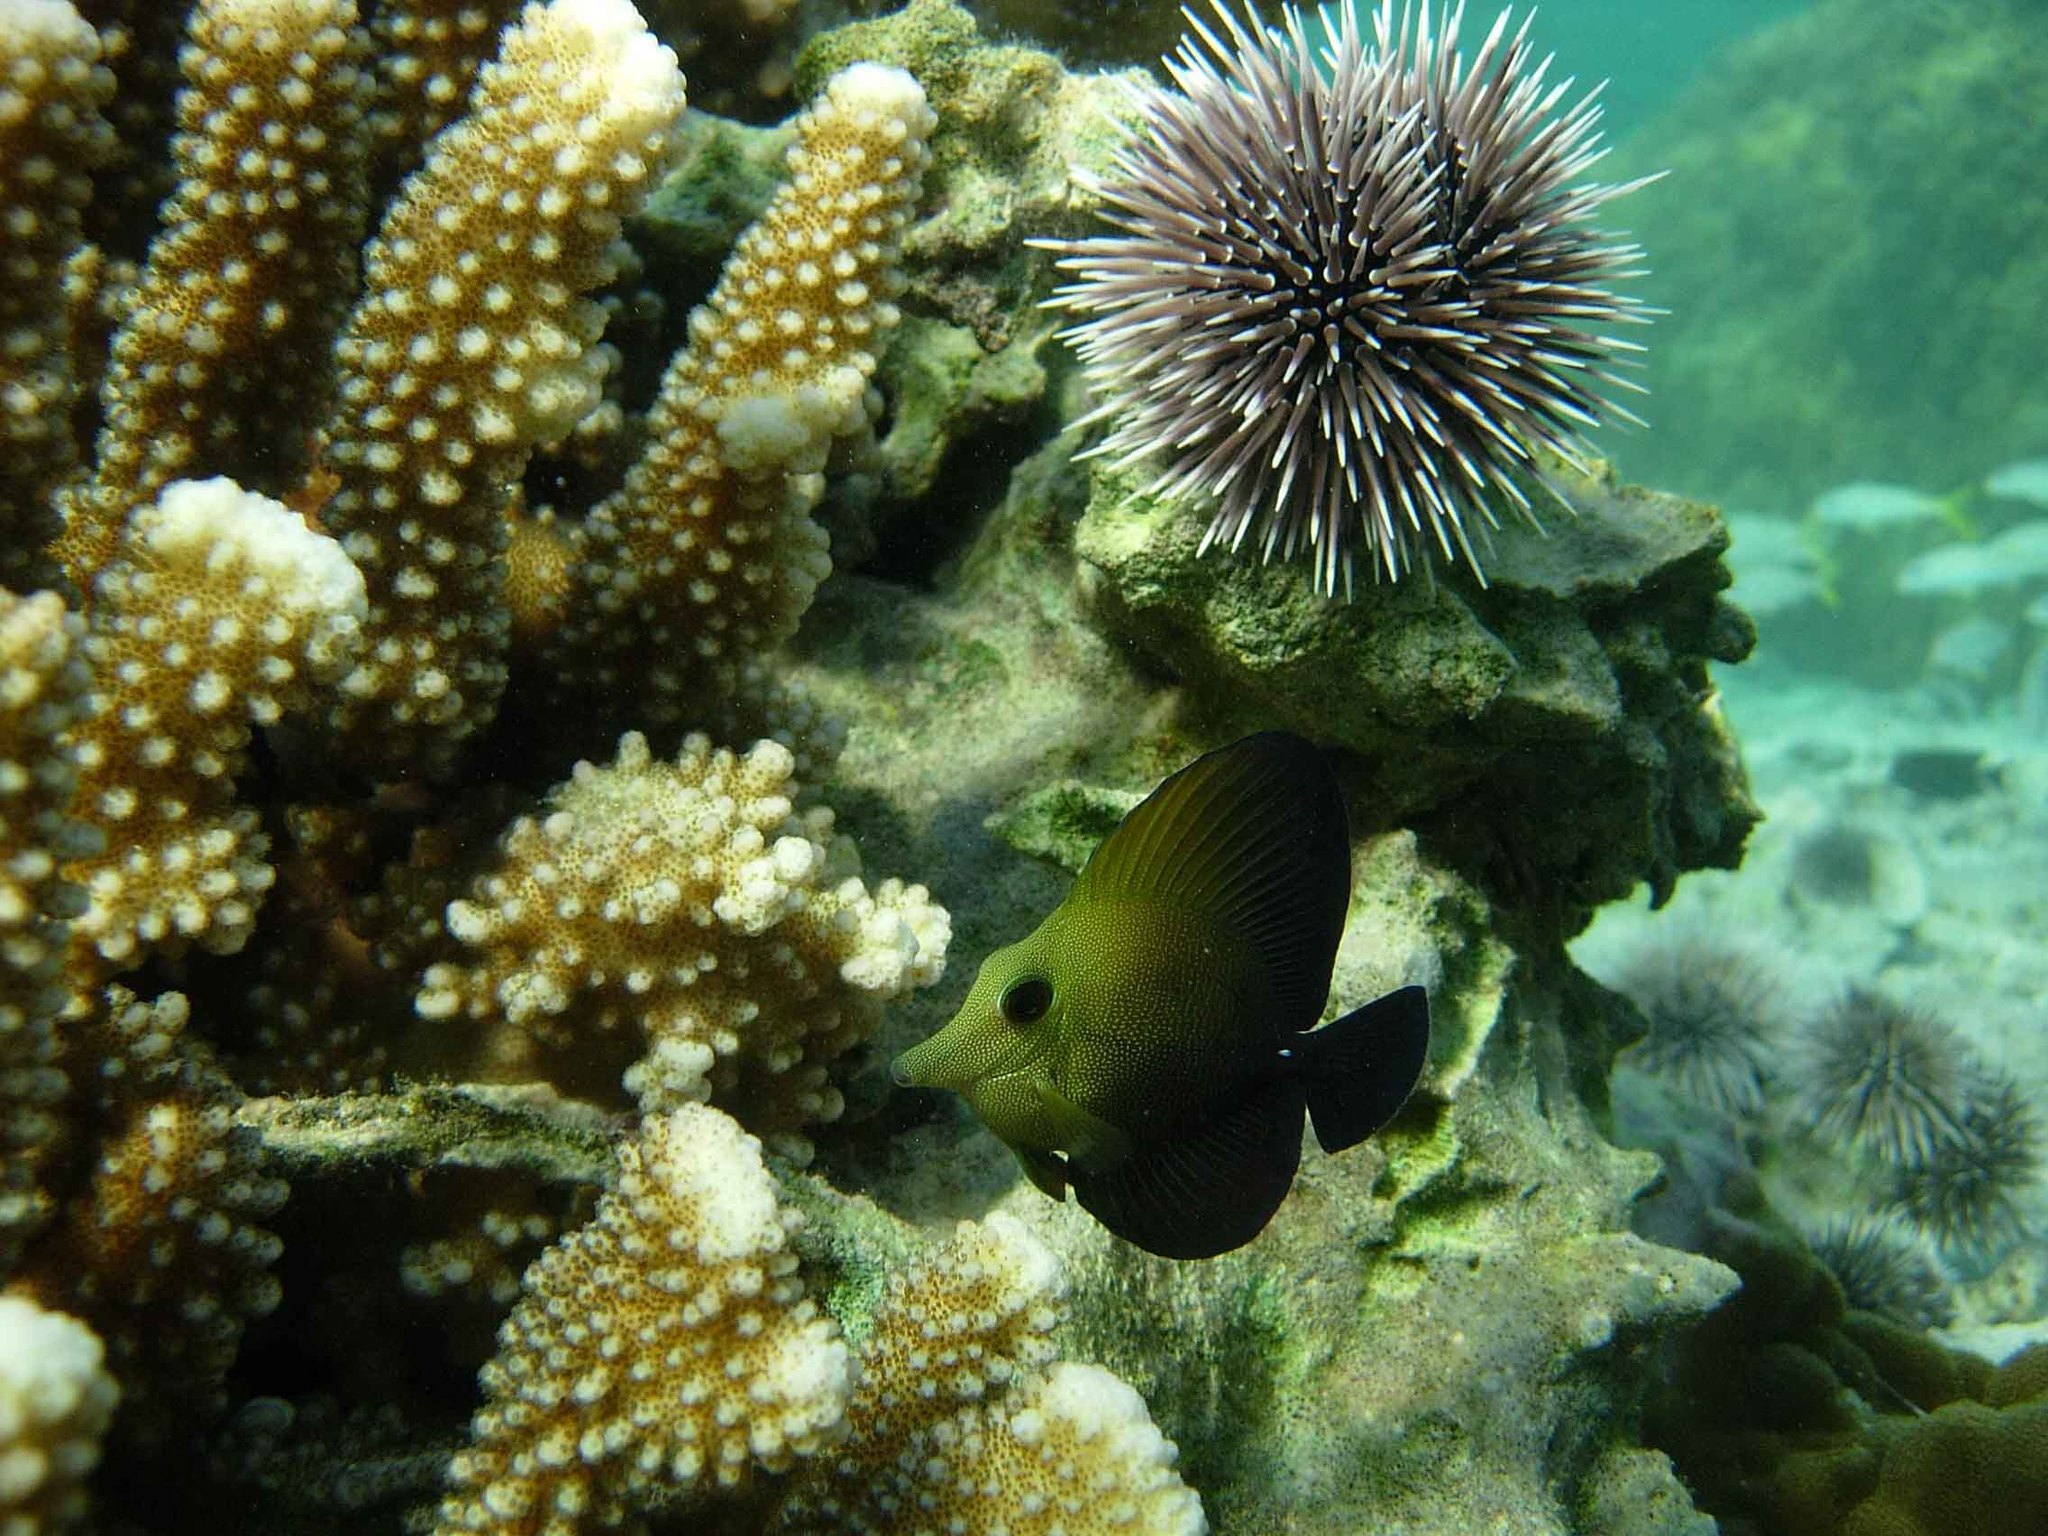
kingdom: Animalia
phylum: Chordata
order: Perciformes
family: Acanthuridae
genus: Zebrasoma
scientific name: Zebrasoma rostratum
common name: Longnose surgeonfish
